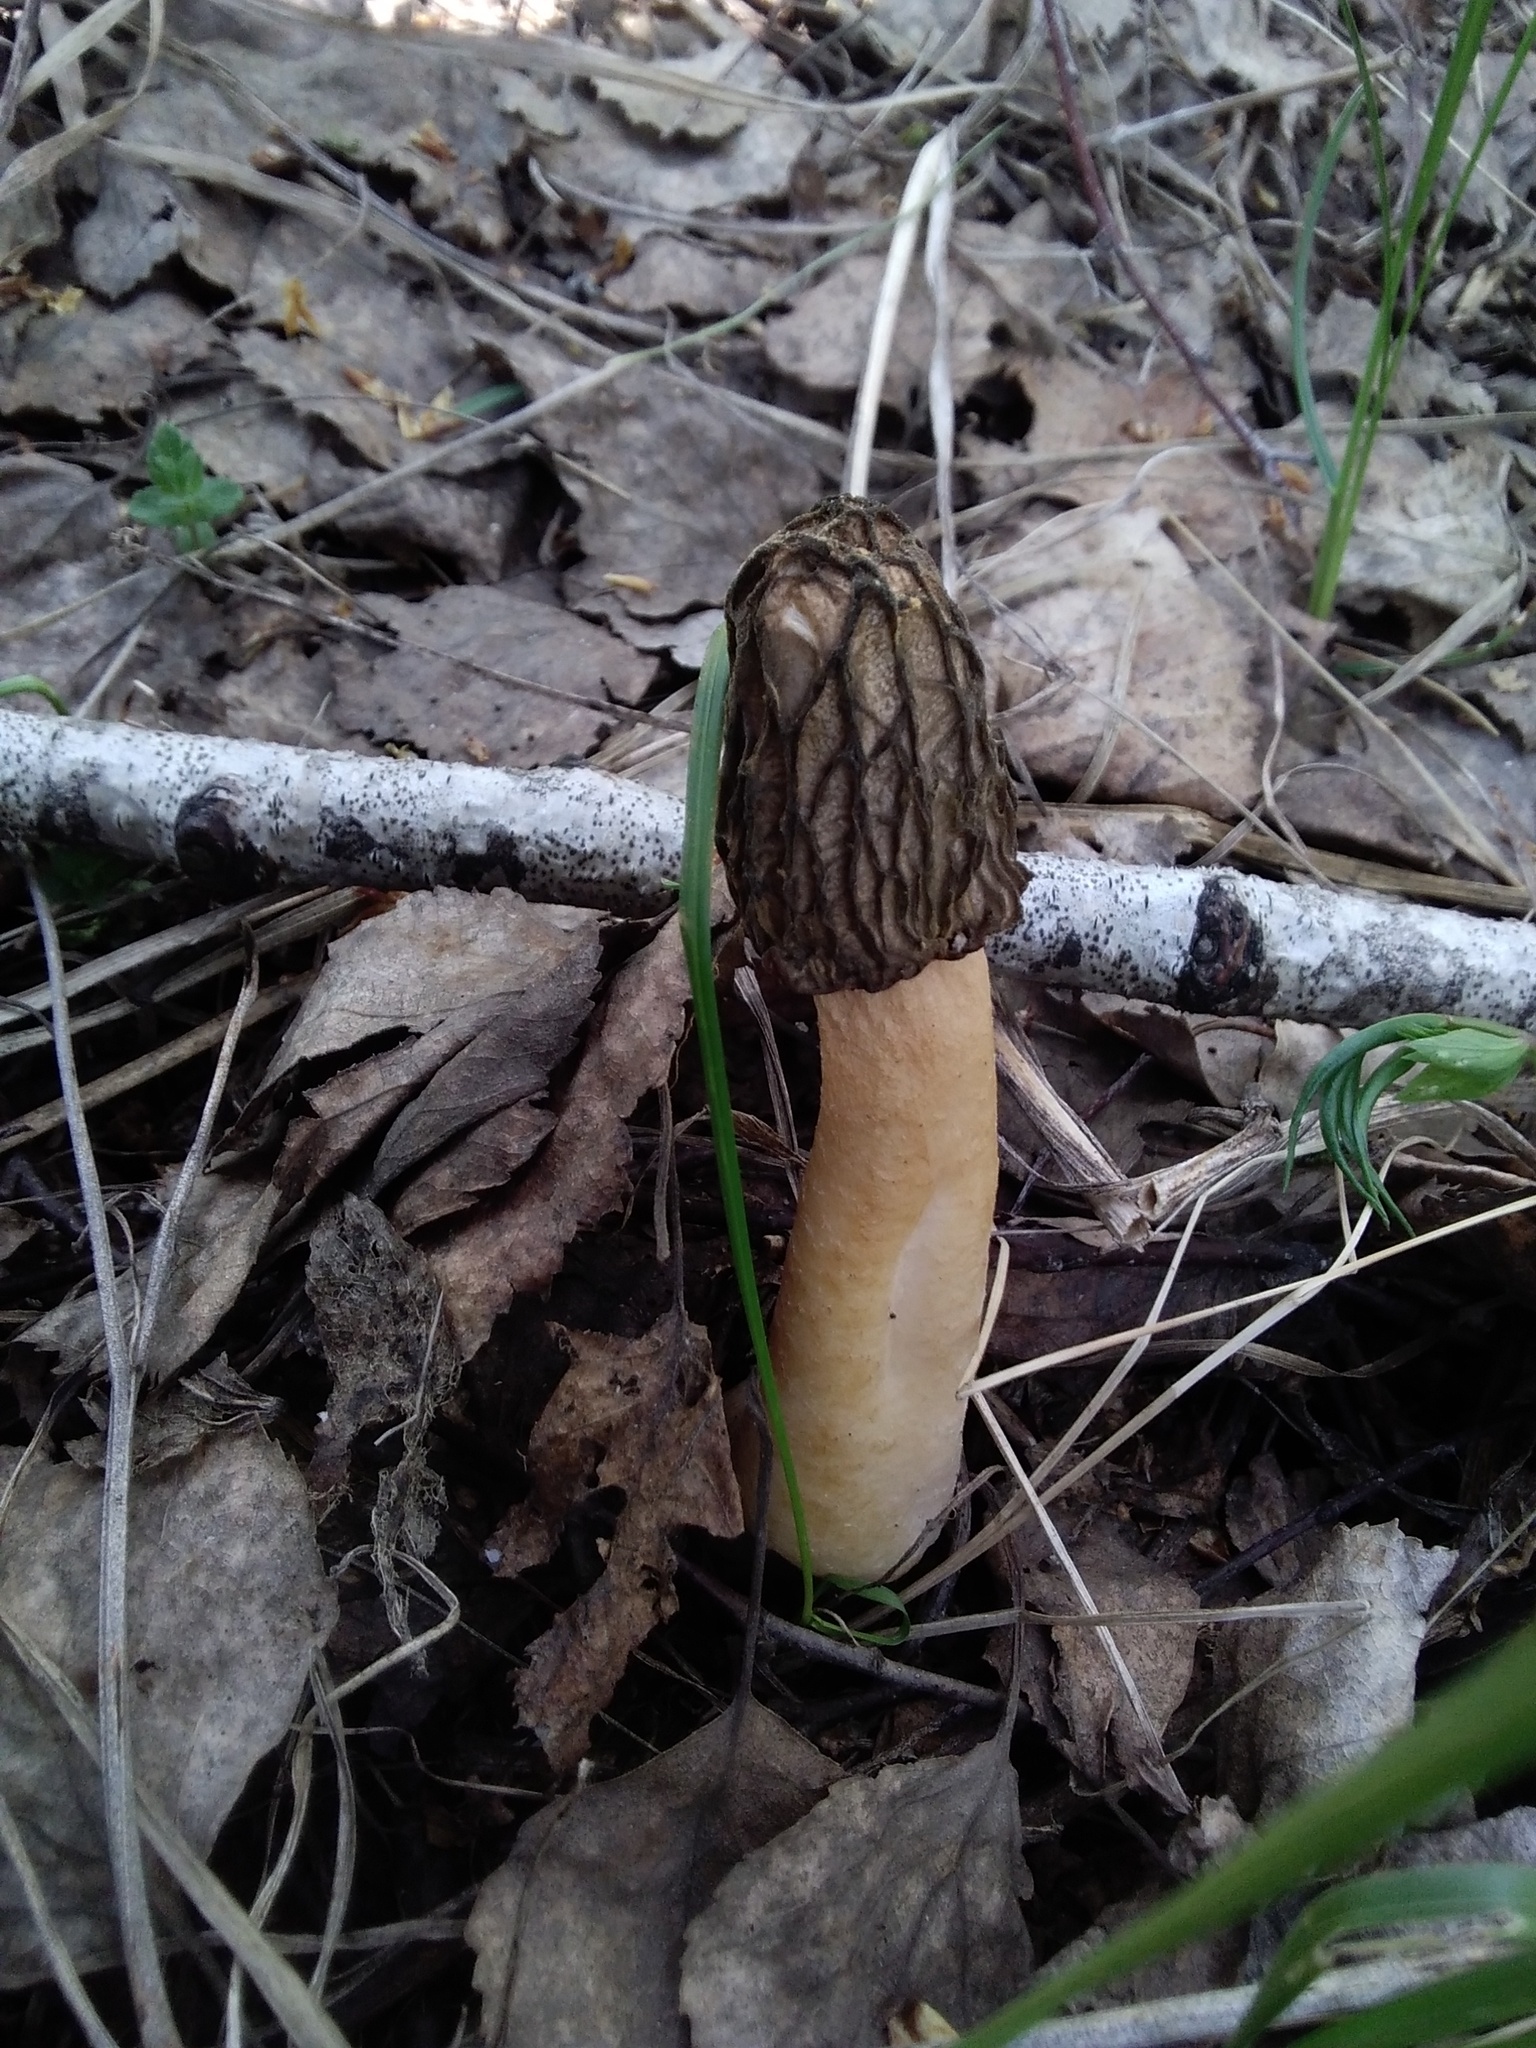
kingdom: Fungi
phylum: Ascomycota
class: Pezizomycetes
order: Pezizales
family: Morchellaceae
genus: Verpa
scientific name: Verpa bohemica
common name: Wrinkled thimble morel
